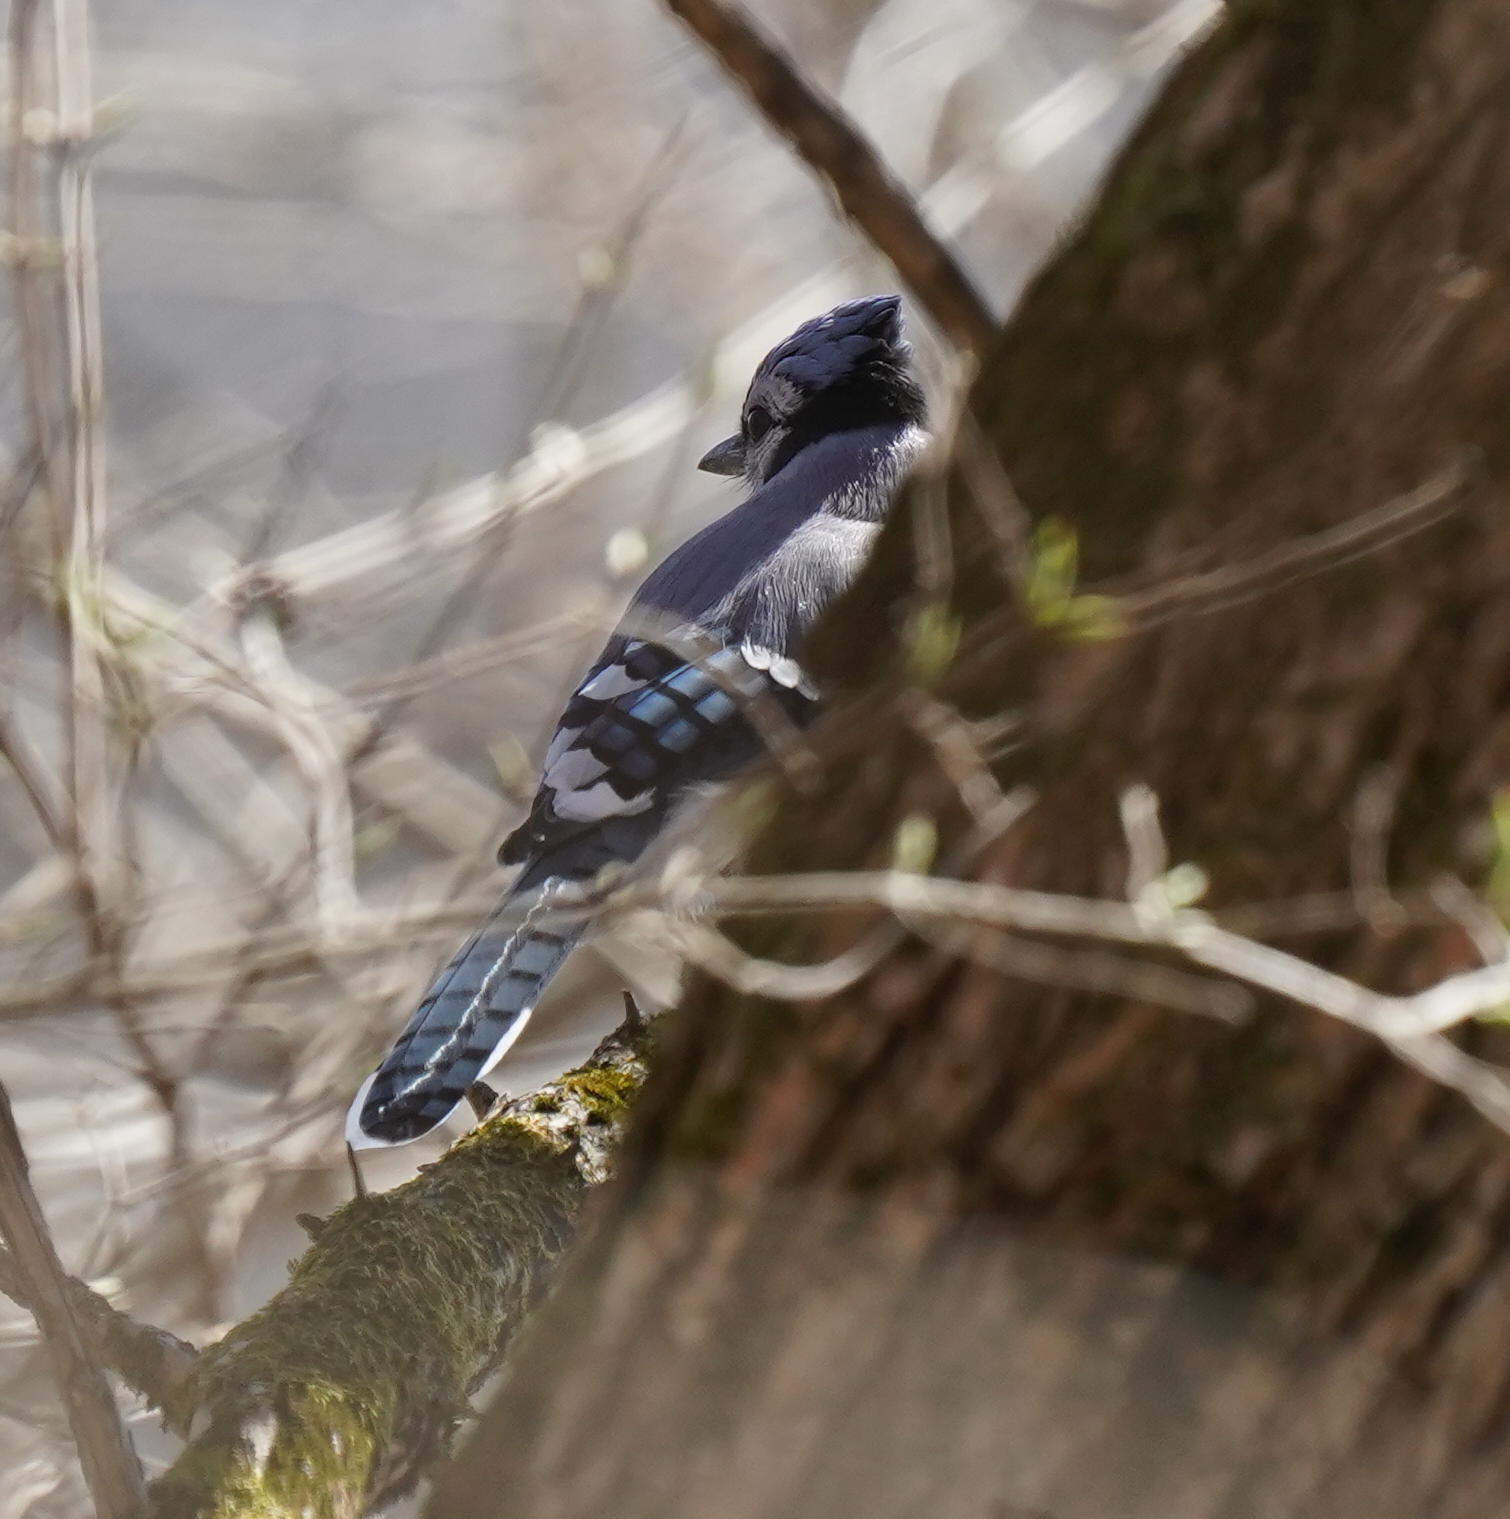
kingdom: Animalia
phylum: Chordata
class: Aves
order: Passeriformes
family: Corvidae
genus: Cyanocitta
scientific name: Cyanocitta cristata
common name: Blue jay
